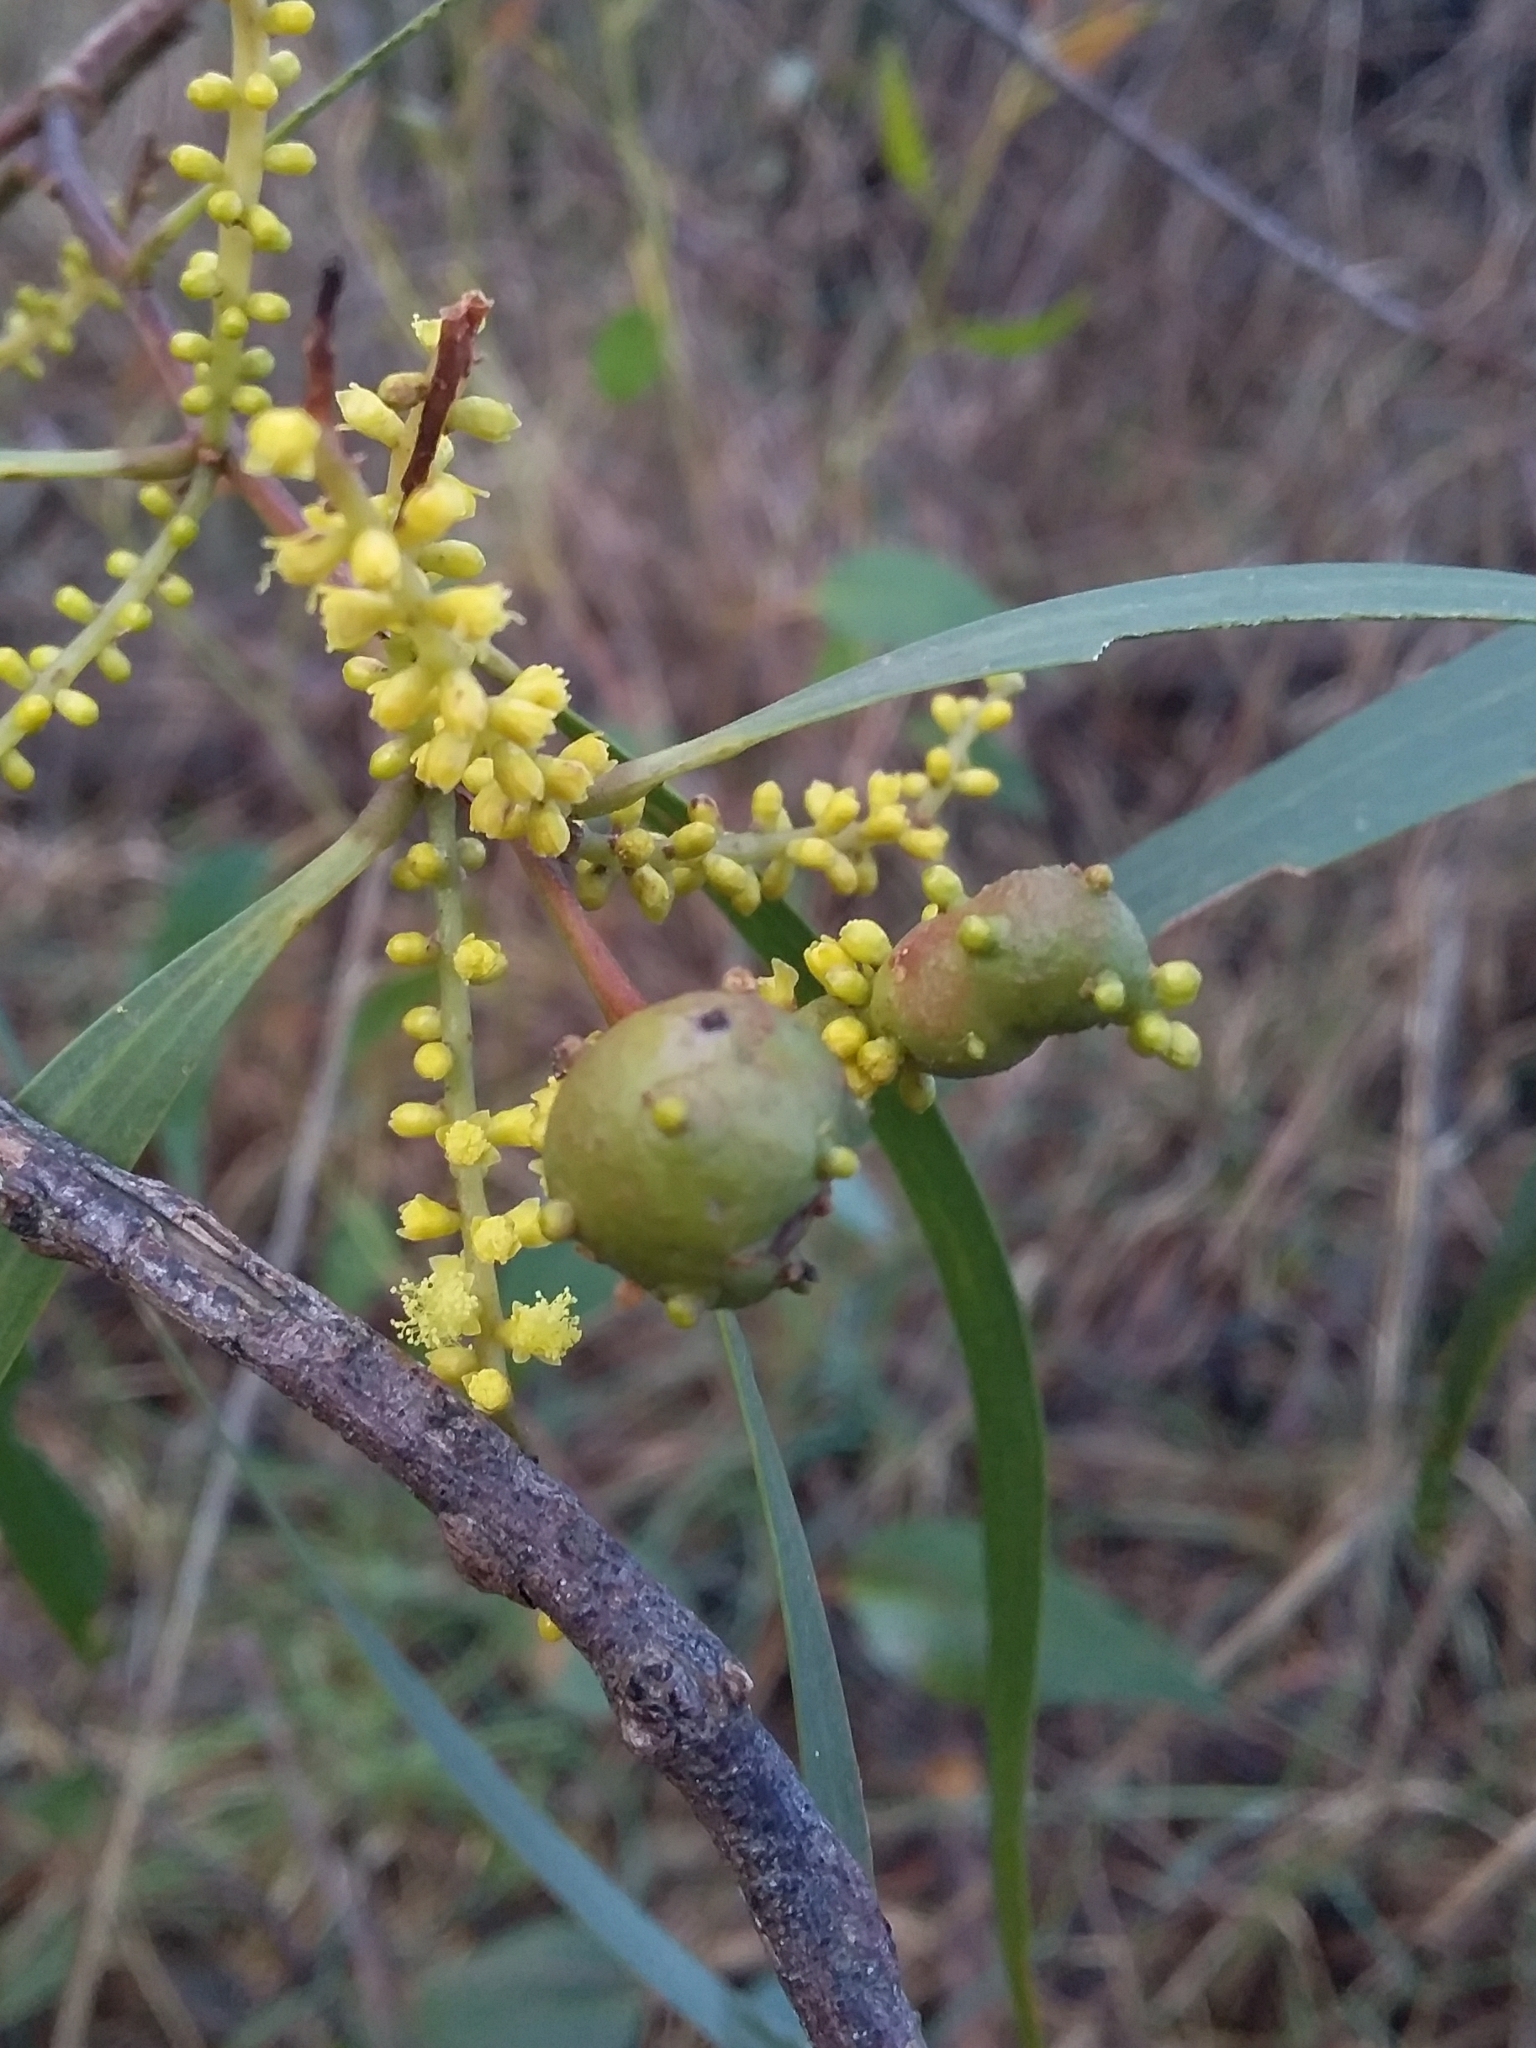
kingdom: Animalia
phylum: Arthropoda
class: Insecta
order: Hymenoptera
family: Pteromalidae
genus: Trichilogaster
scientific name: Trichilogaster acaciaelongifoliae
